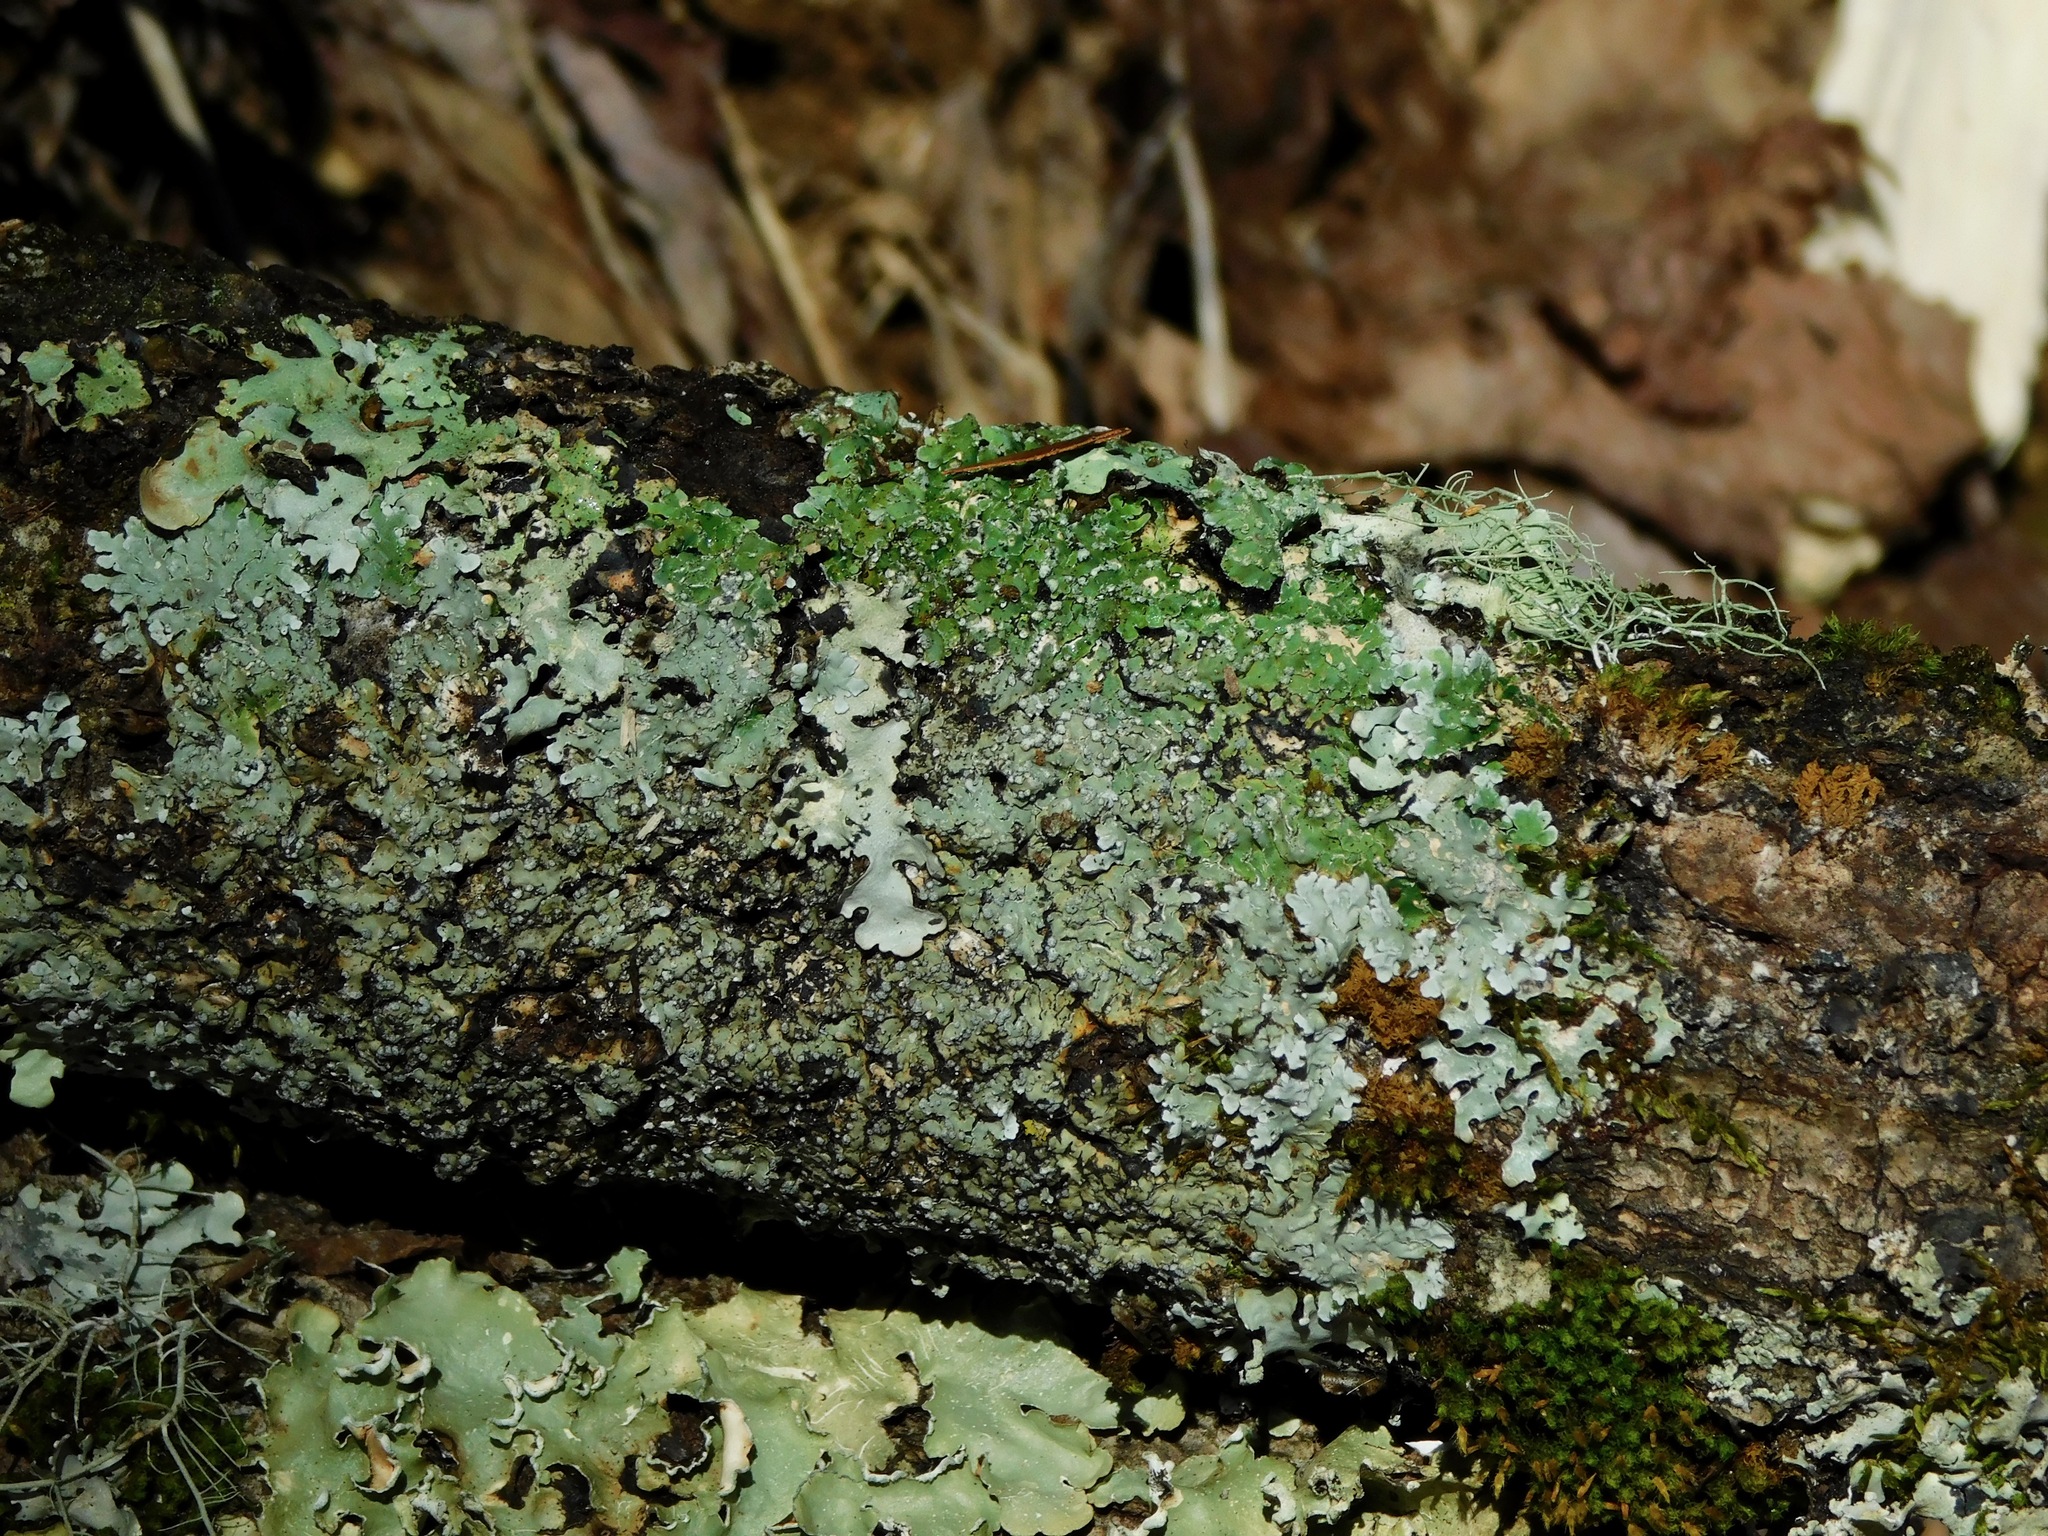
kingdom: Fungi
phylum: Ascomycota
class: Lecanoromycetes
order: Caliciales
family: Caliciaceae
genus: Pyxine
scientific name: Pyxine sorediata
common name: Mustard lichen
